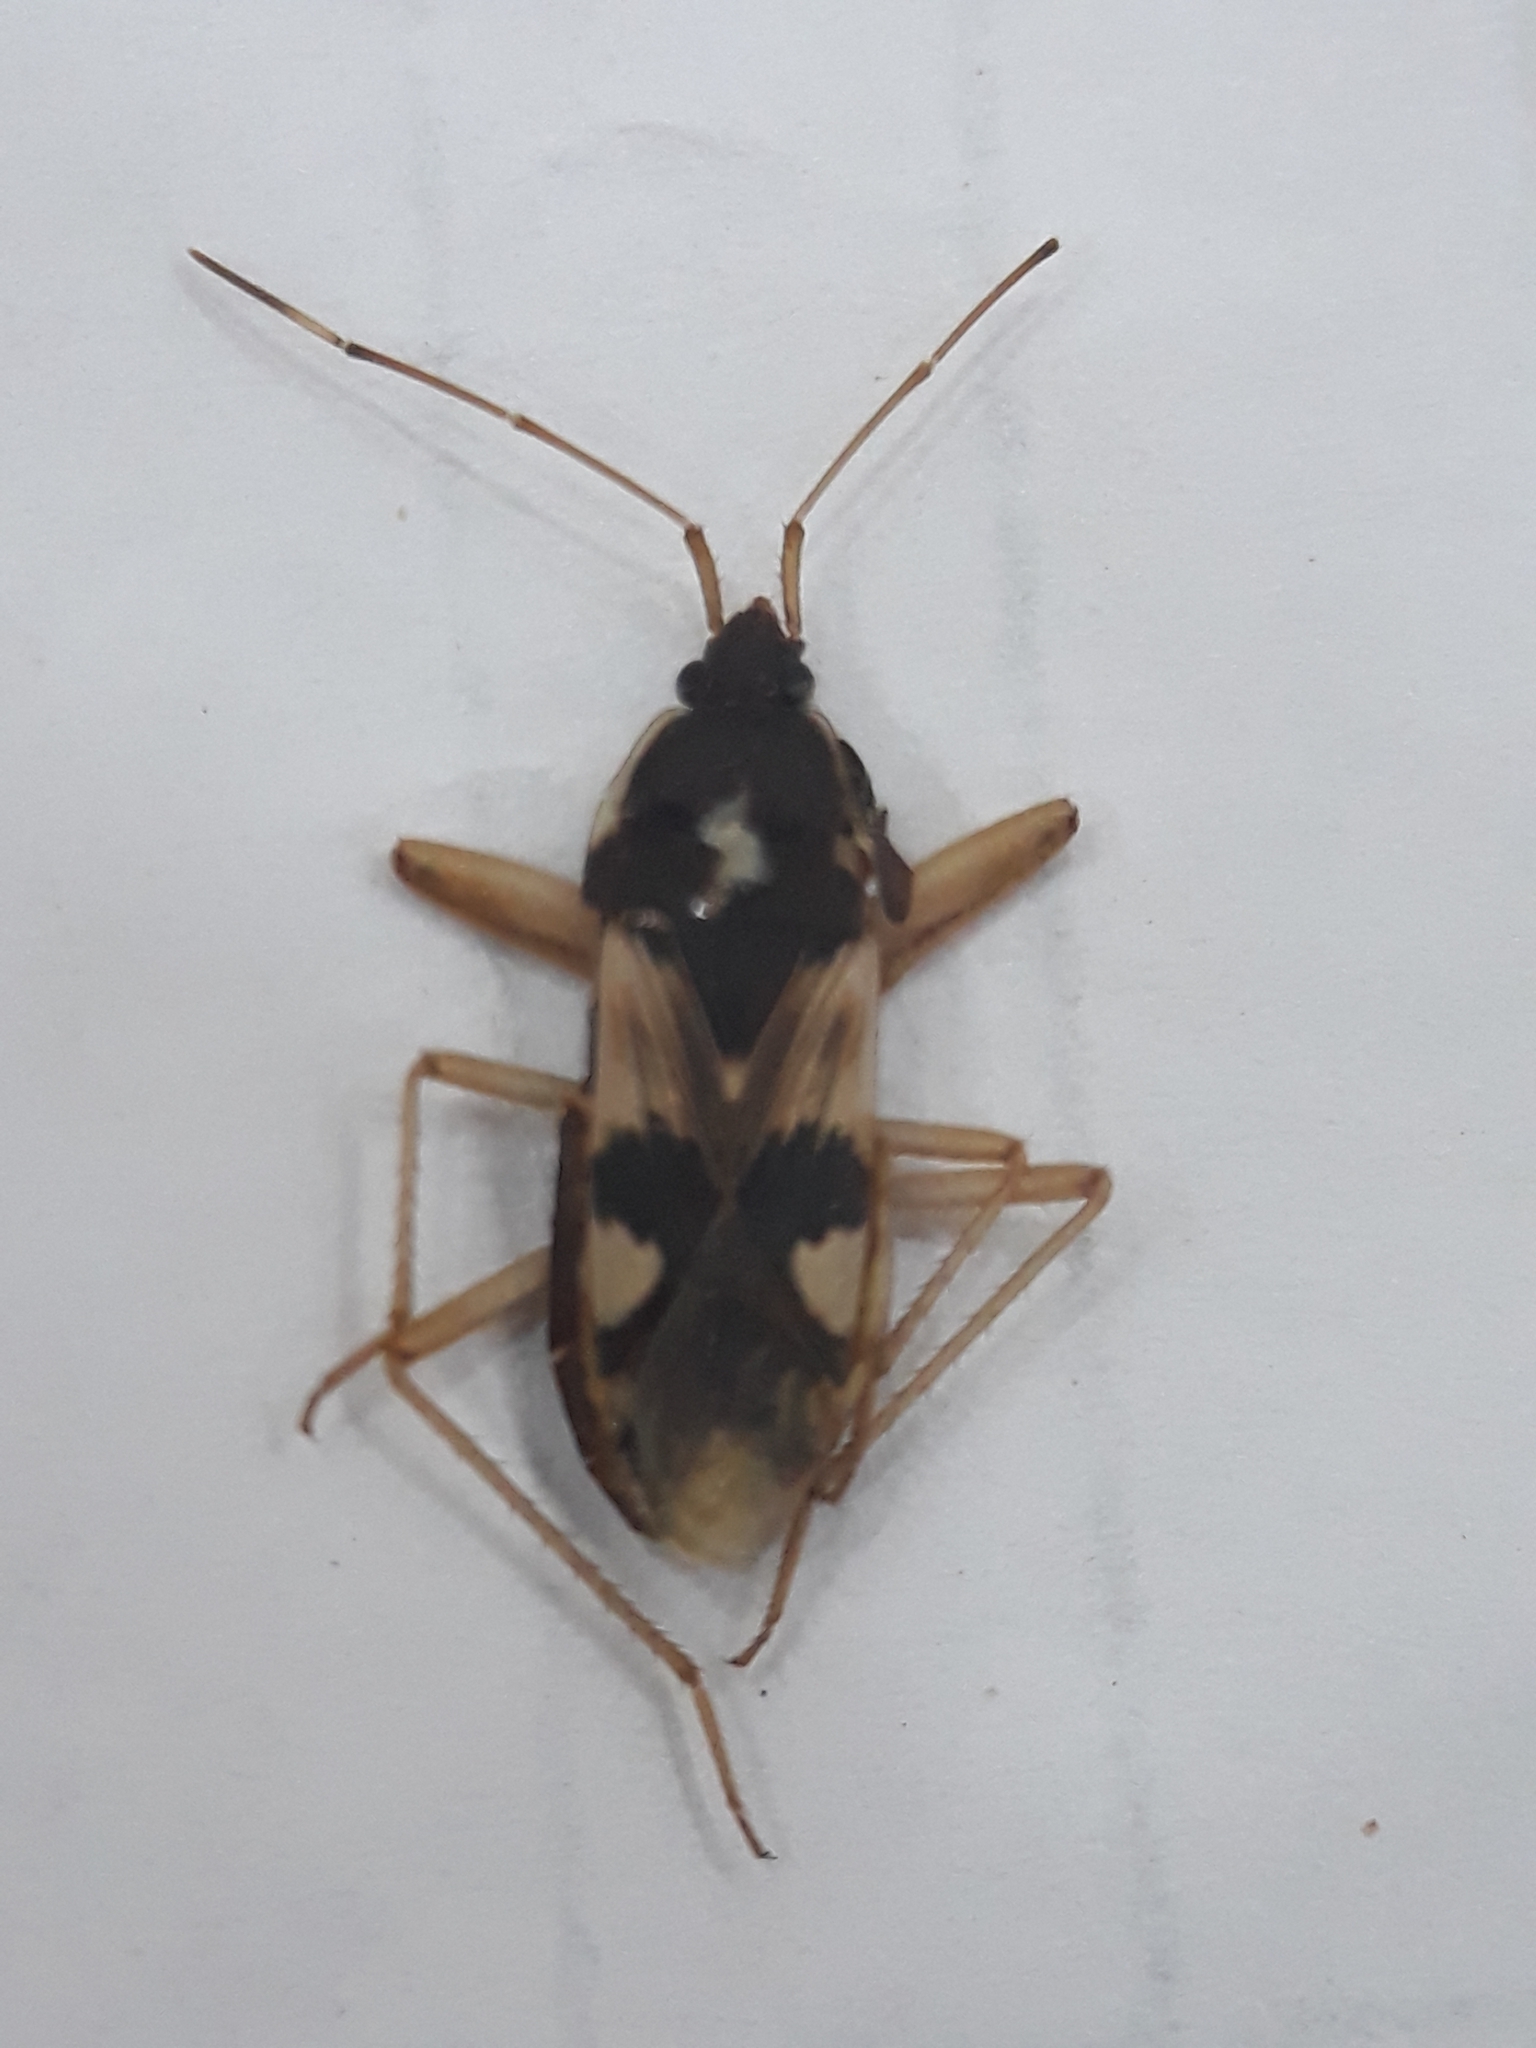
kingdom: Animalia
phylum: Arthropoda
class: Insecta
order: Hemiptera
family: Rhyparochromidae
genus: Dieuches
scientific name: Dieuches mucronatus
